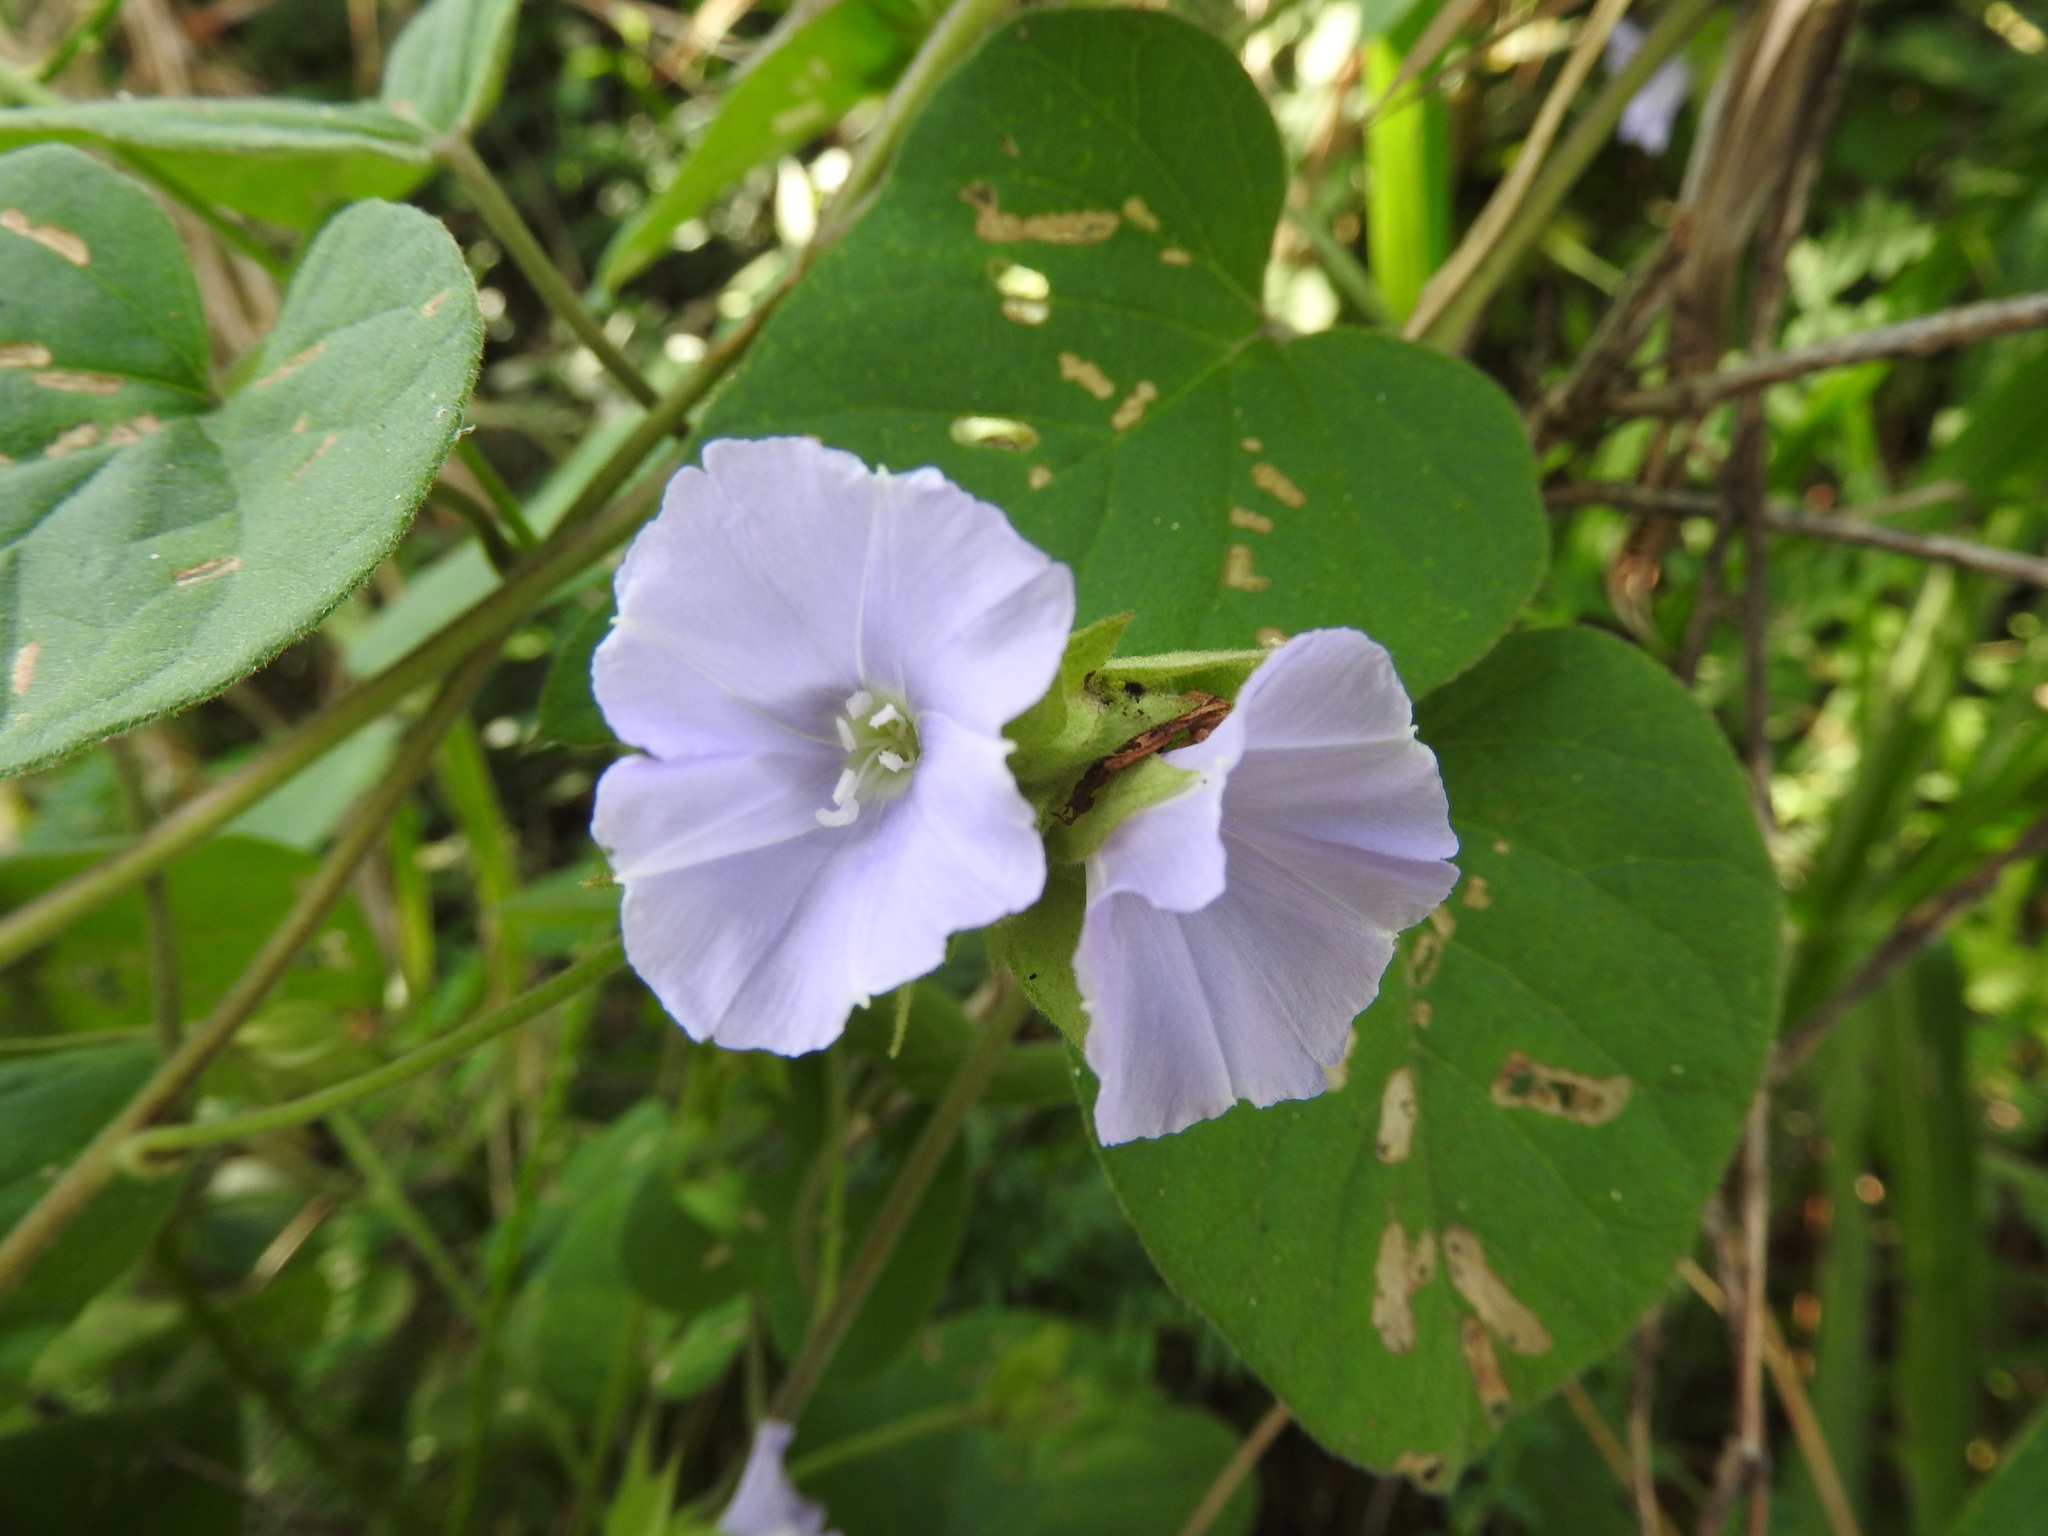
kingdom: Plantae
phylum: Tracheophyta
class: Magnoliopsida
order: Solanales
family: Convolvulaceae
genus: Jacquemontia
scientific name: Jacquemontia pycnocephala
